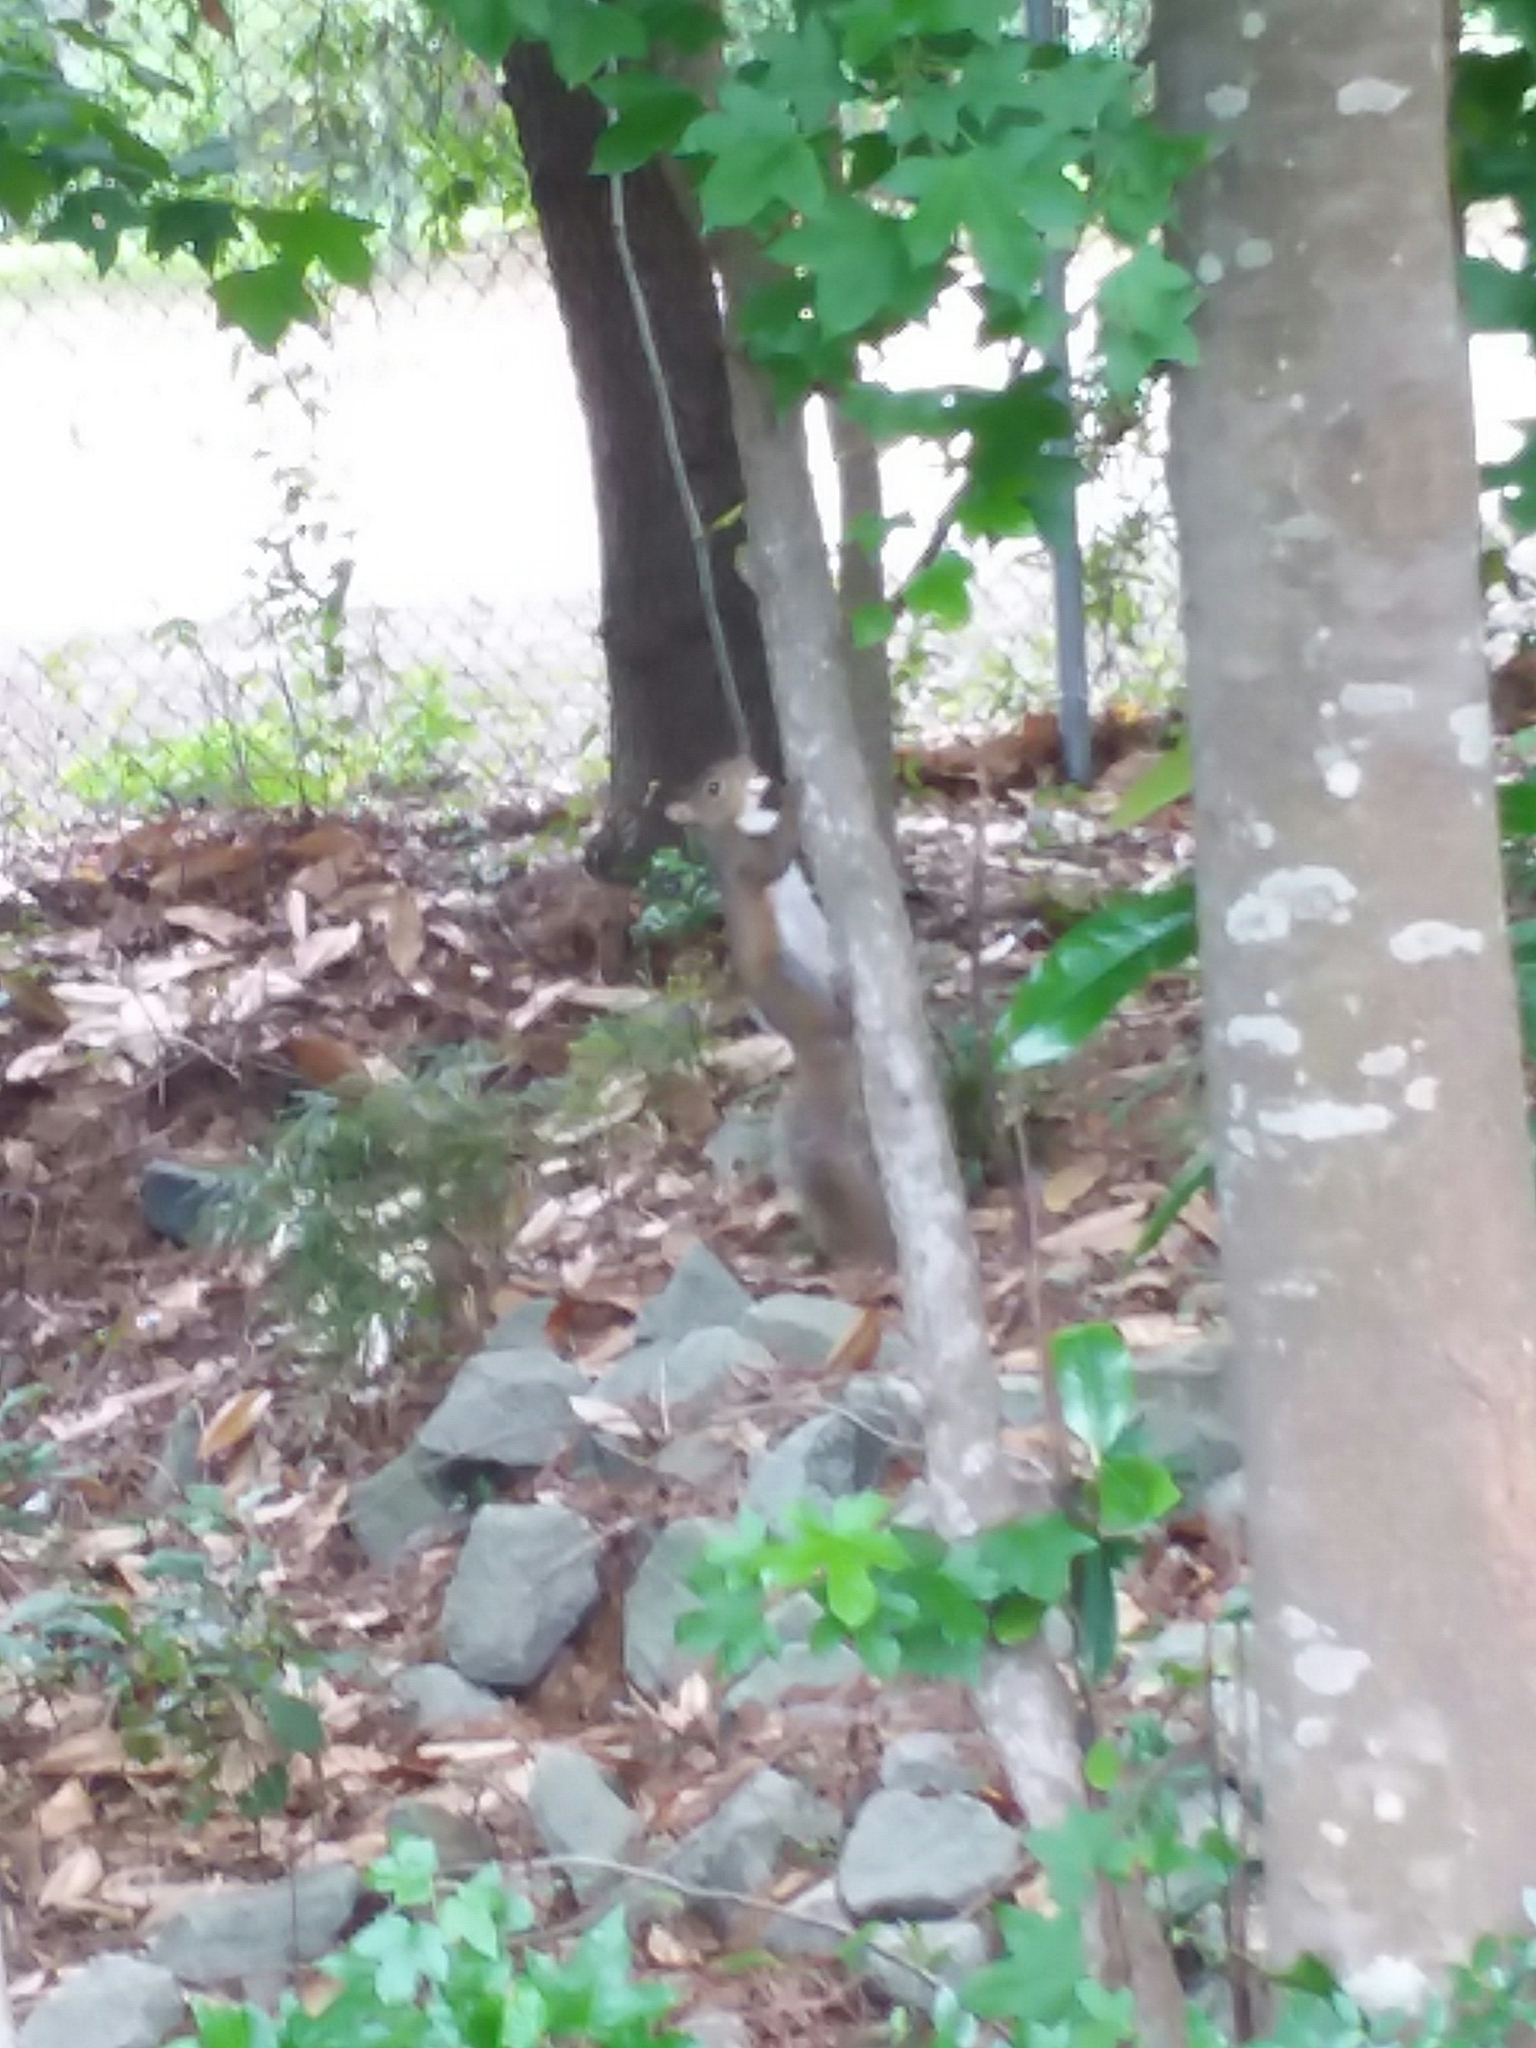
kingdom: Animalia
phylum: Chordata
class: Mammalia
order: Rodentia
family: Sciuridae
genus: Sciurus
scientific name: Sciurus carolinensis
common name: Eastern gray squirrel
